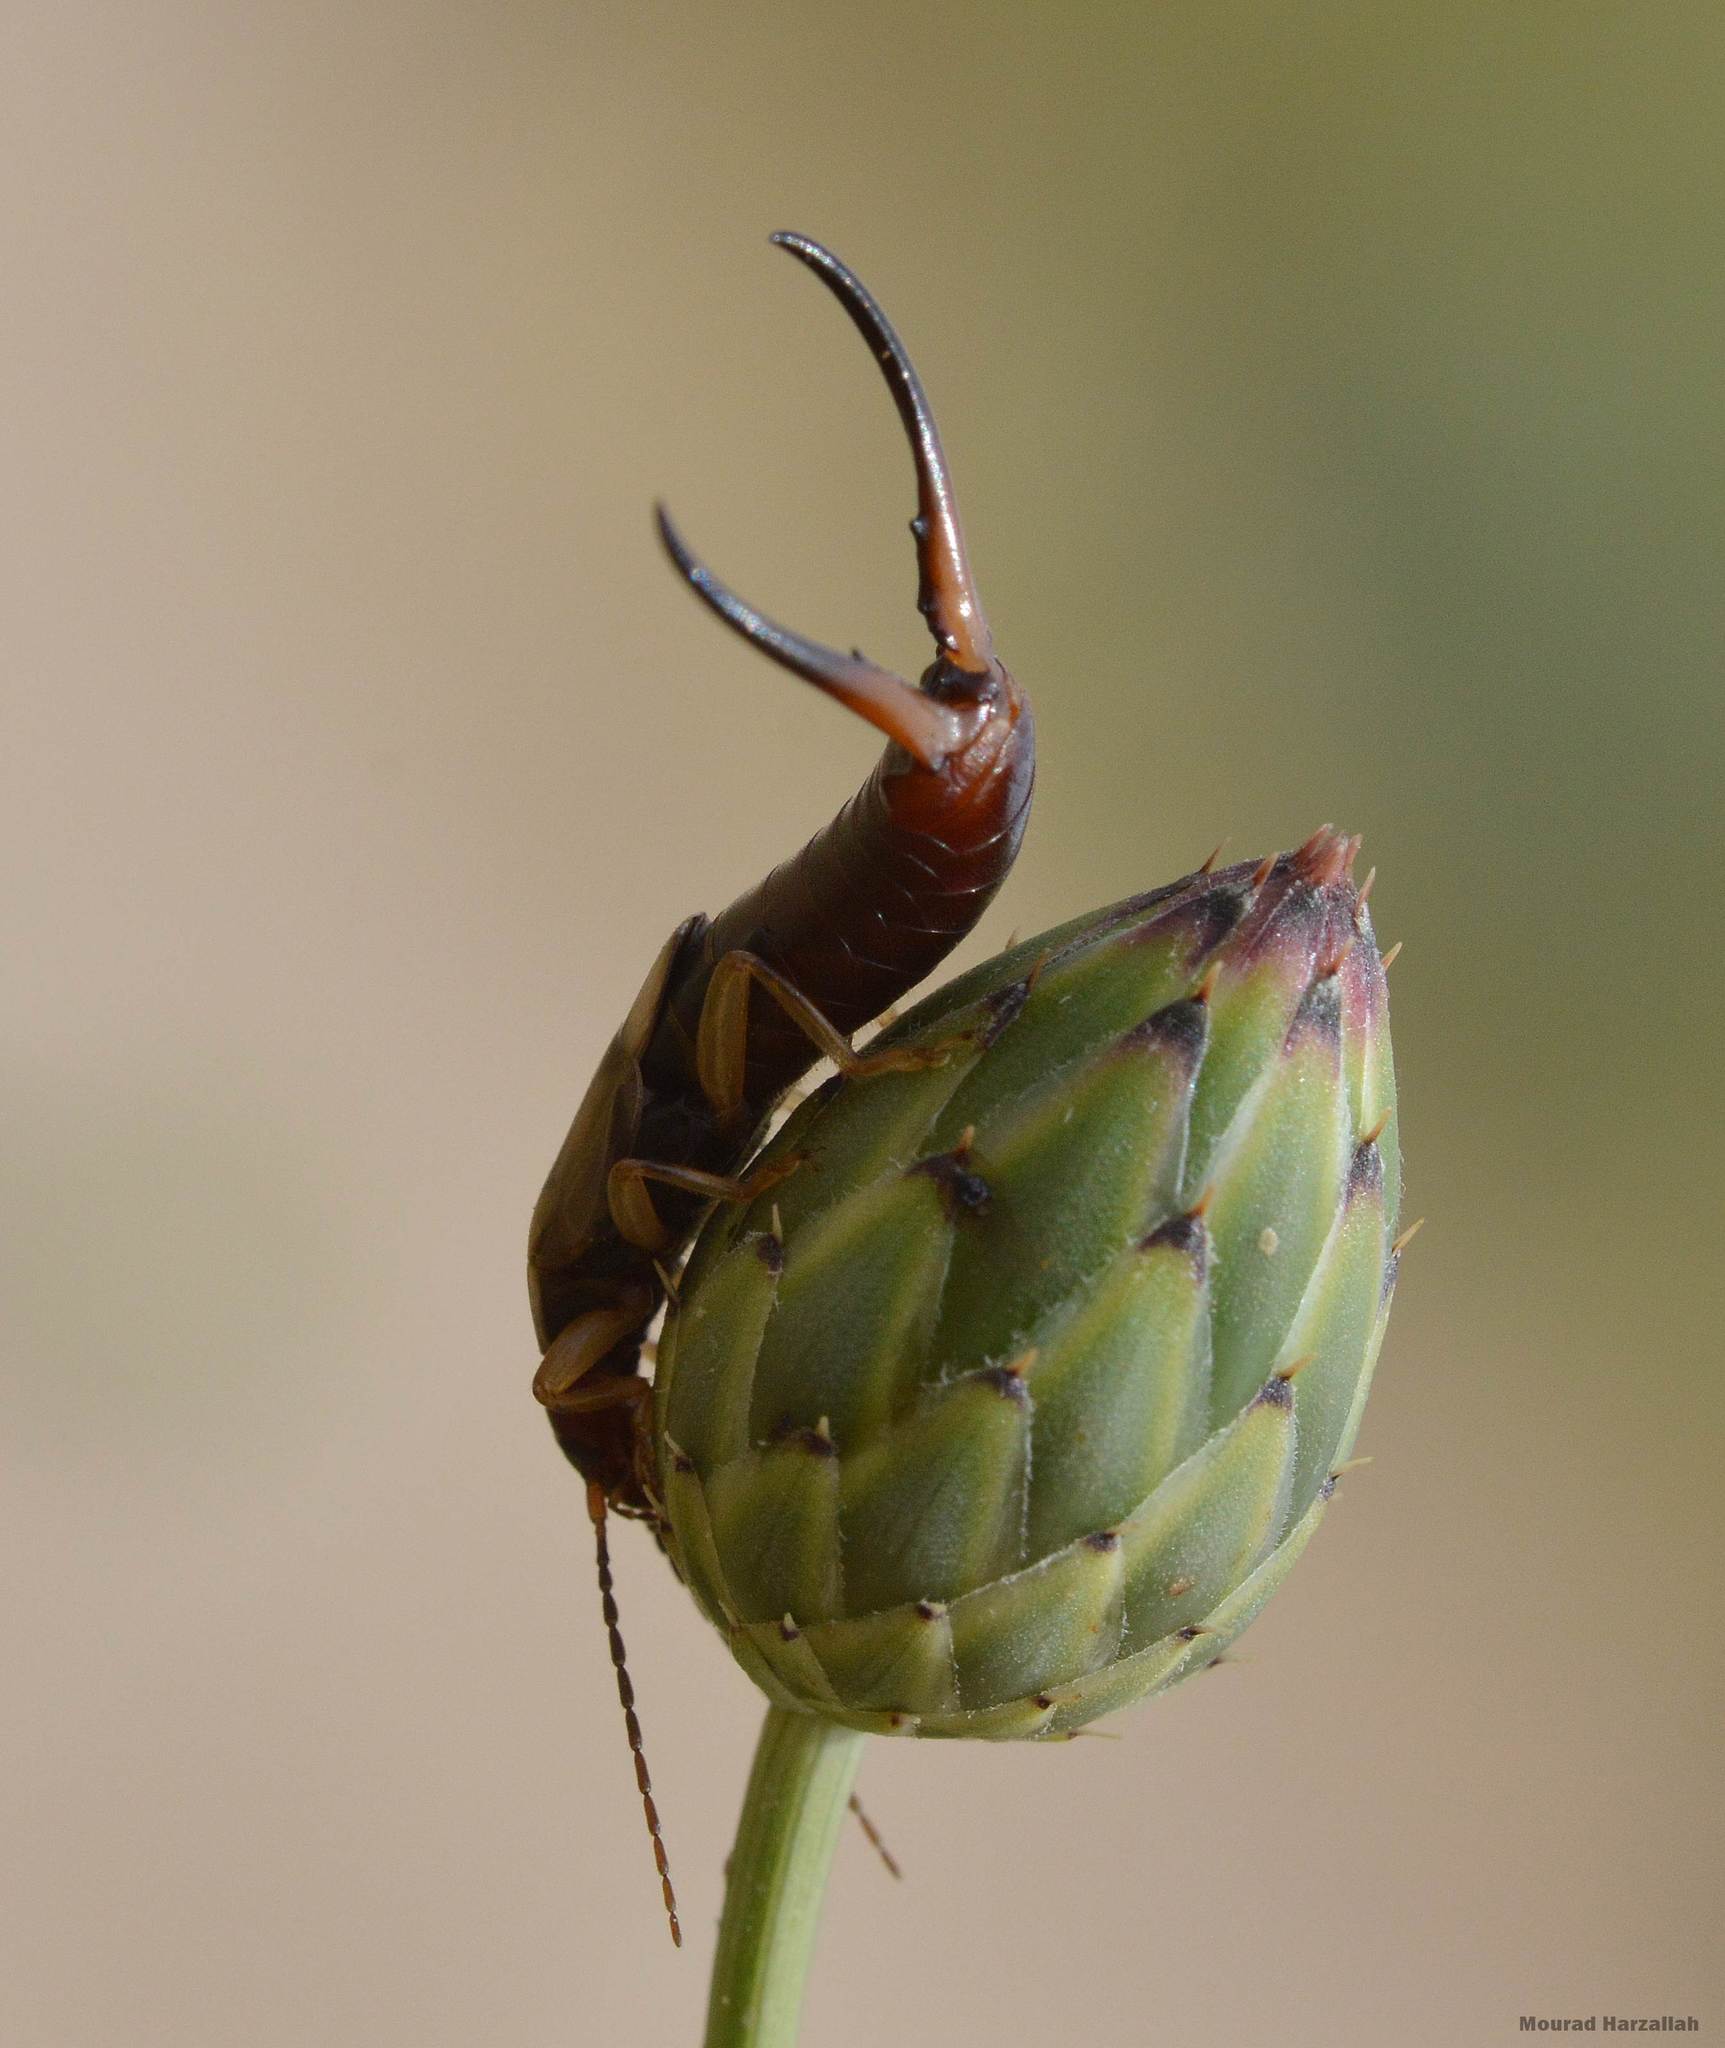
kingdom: Animalia
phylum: Arthropoda
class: Insecta
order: Dermaptera
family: Forficulidae
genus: Forficula
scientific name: Forficula
